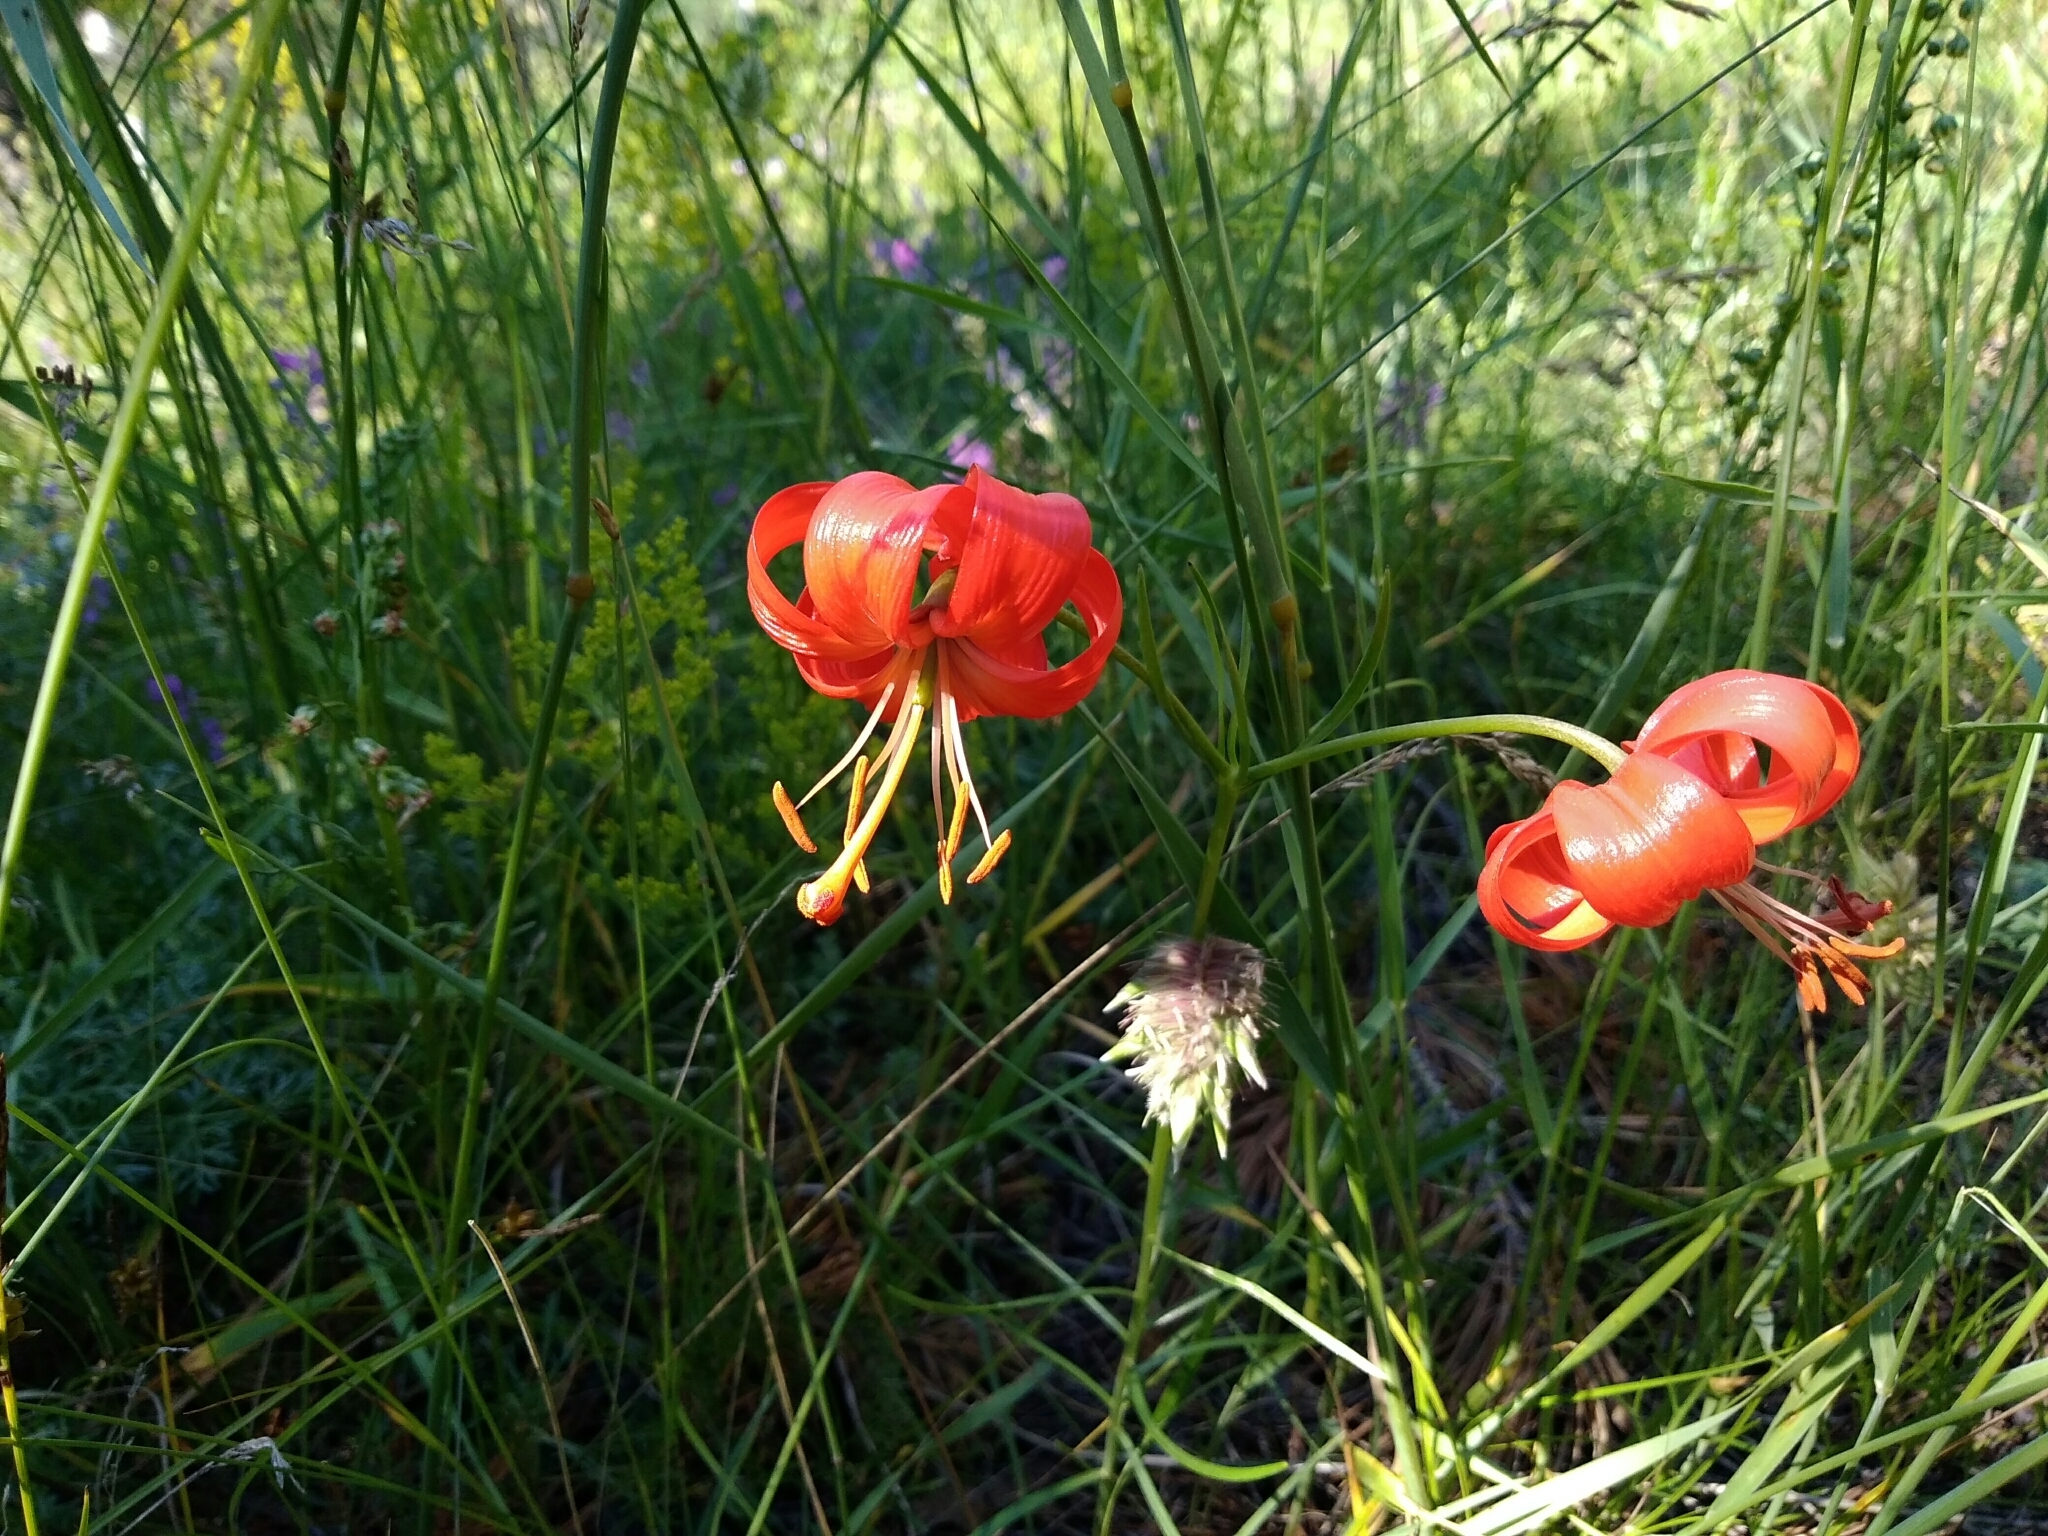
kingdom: Plantae
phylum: Tracheophyta
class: Liliopsida
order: Liliales
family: Liliaceae
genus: Lilium
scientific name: Lilium pumilum
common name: Coral lily
